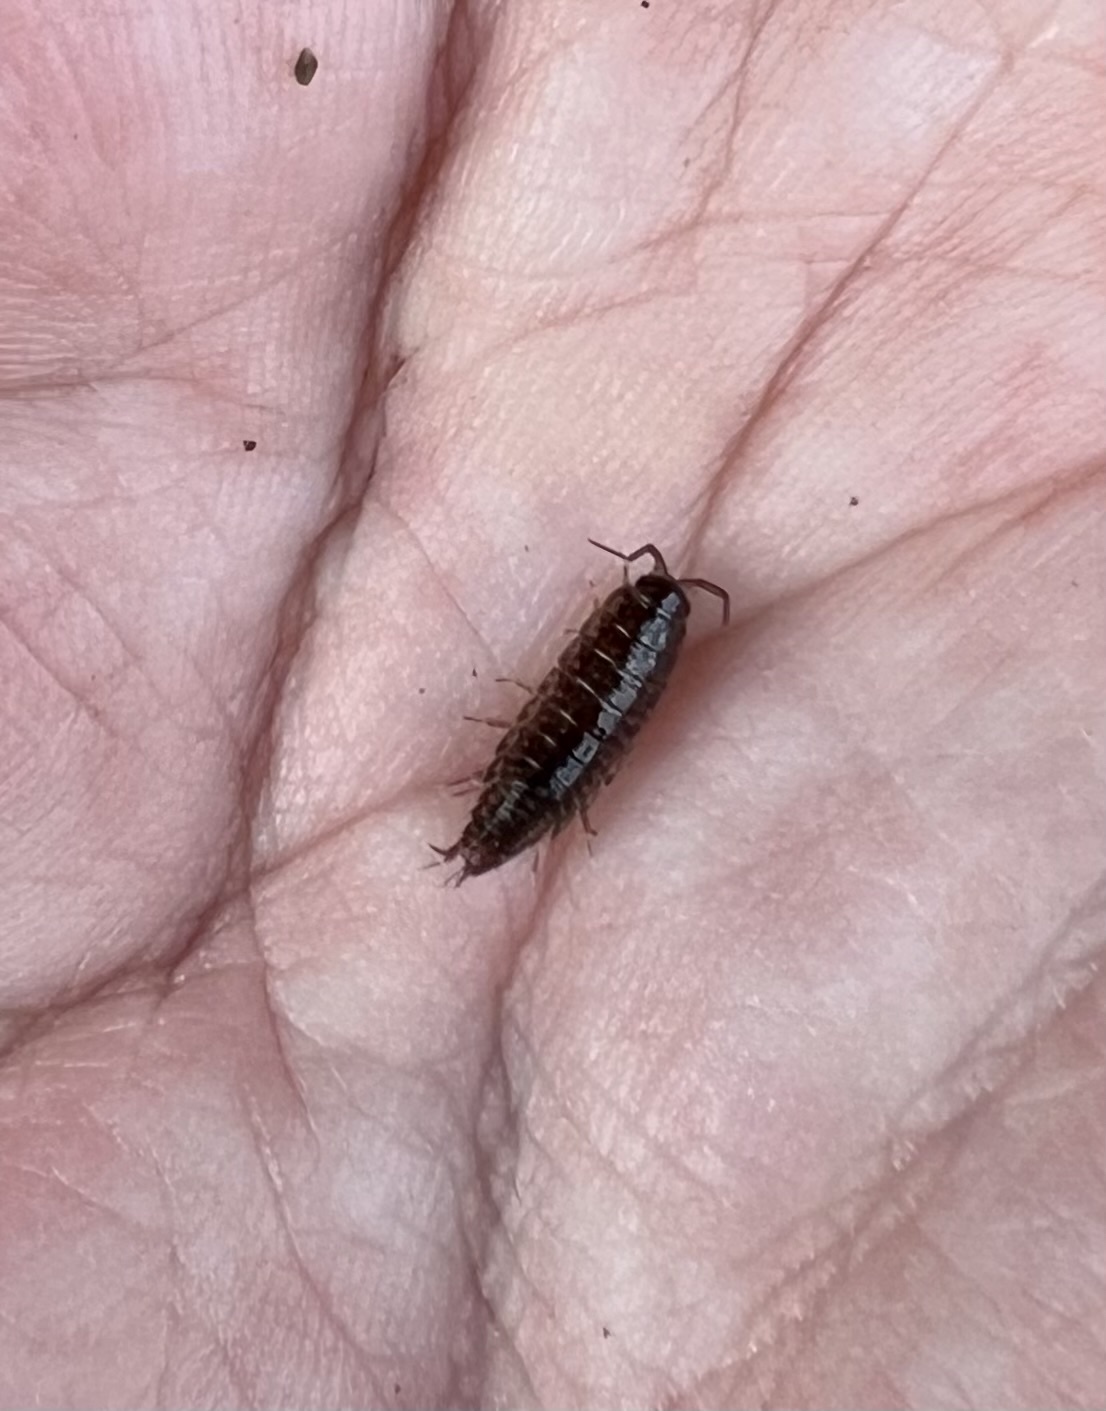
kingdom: Animalia
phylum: Arthropoda
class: Malacostraca
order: Isopoda
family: Ligiidae
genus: Ligidium
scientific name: Ligidium lapetum
